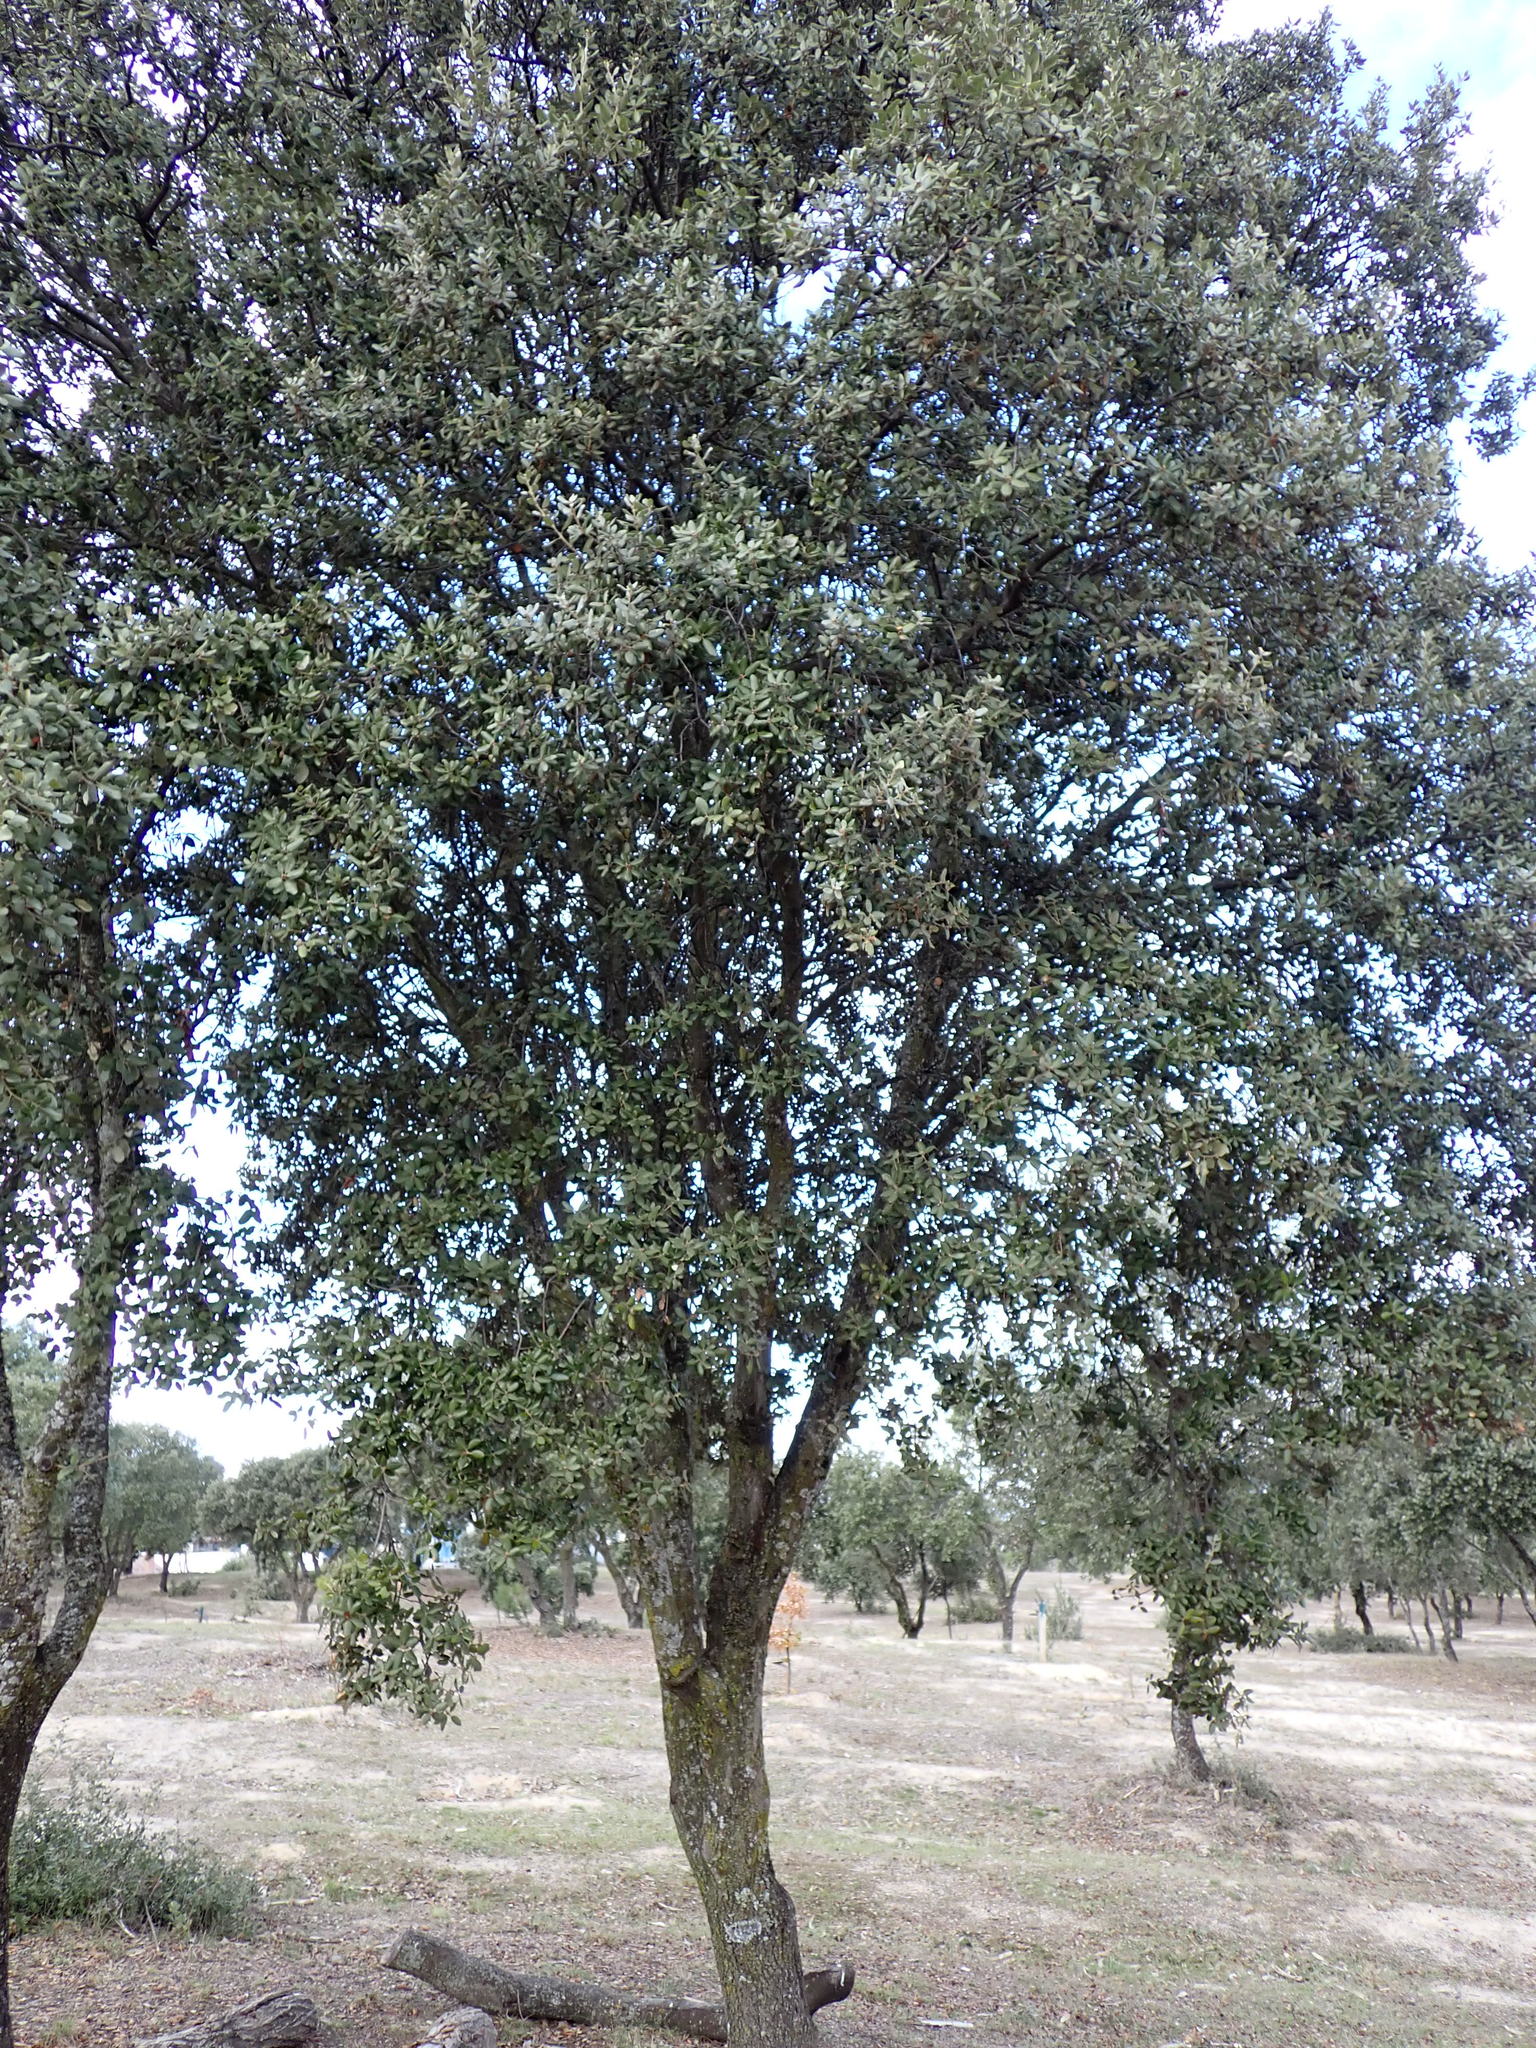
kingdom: Plantae
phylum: Tracheophyta
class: Magnoliopsida
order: Fagales
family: Fagaceae
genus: Quercus
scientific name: Quercus rotundifolia
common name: Holm oak
